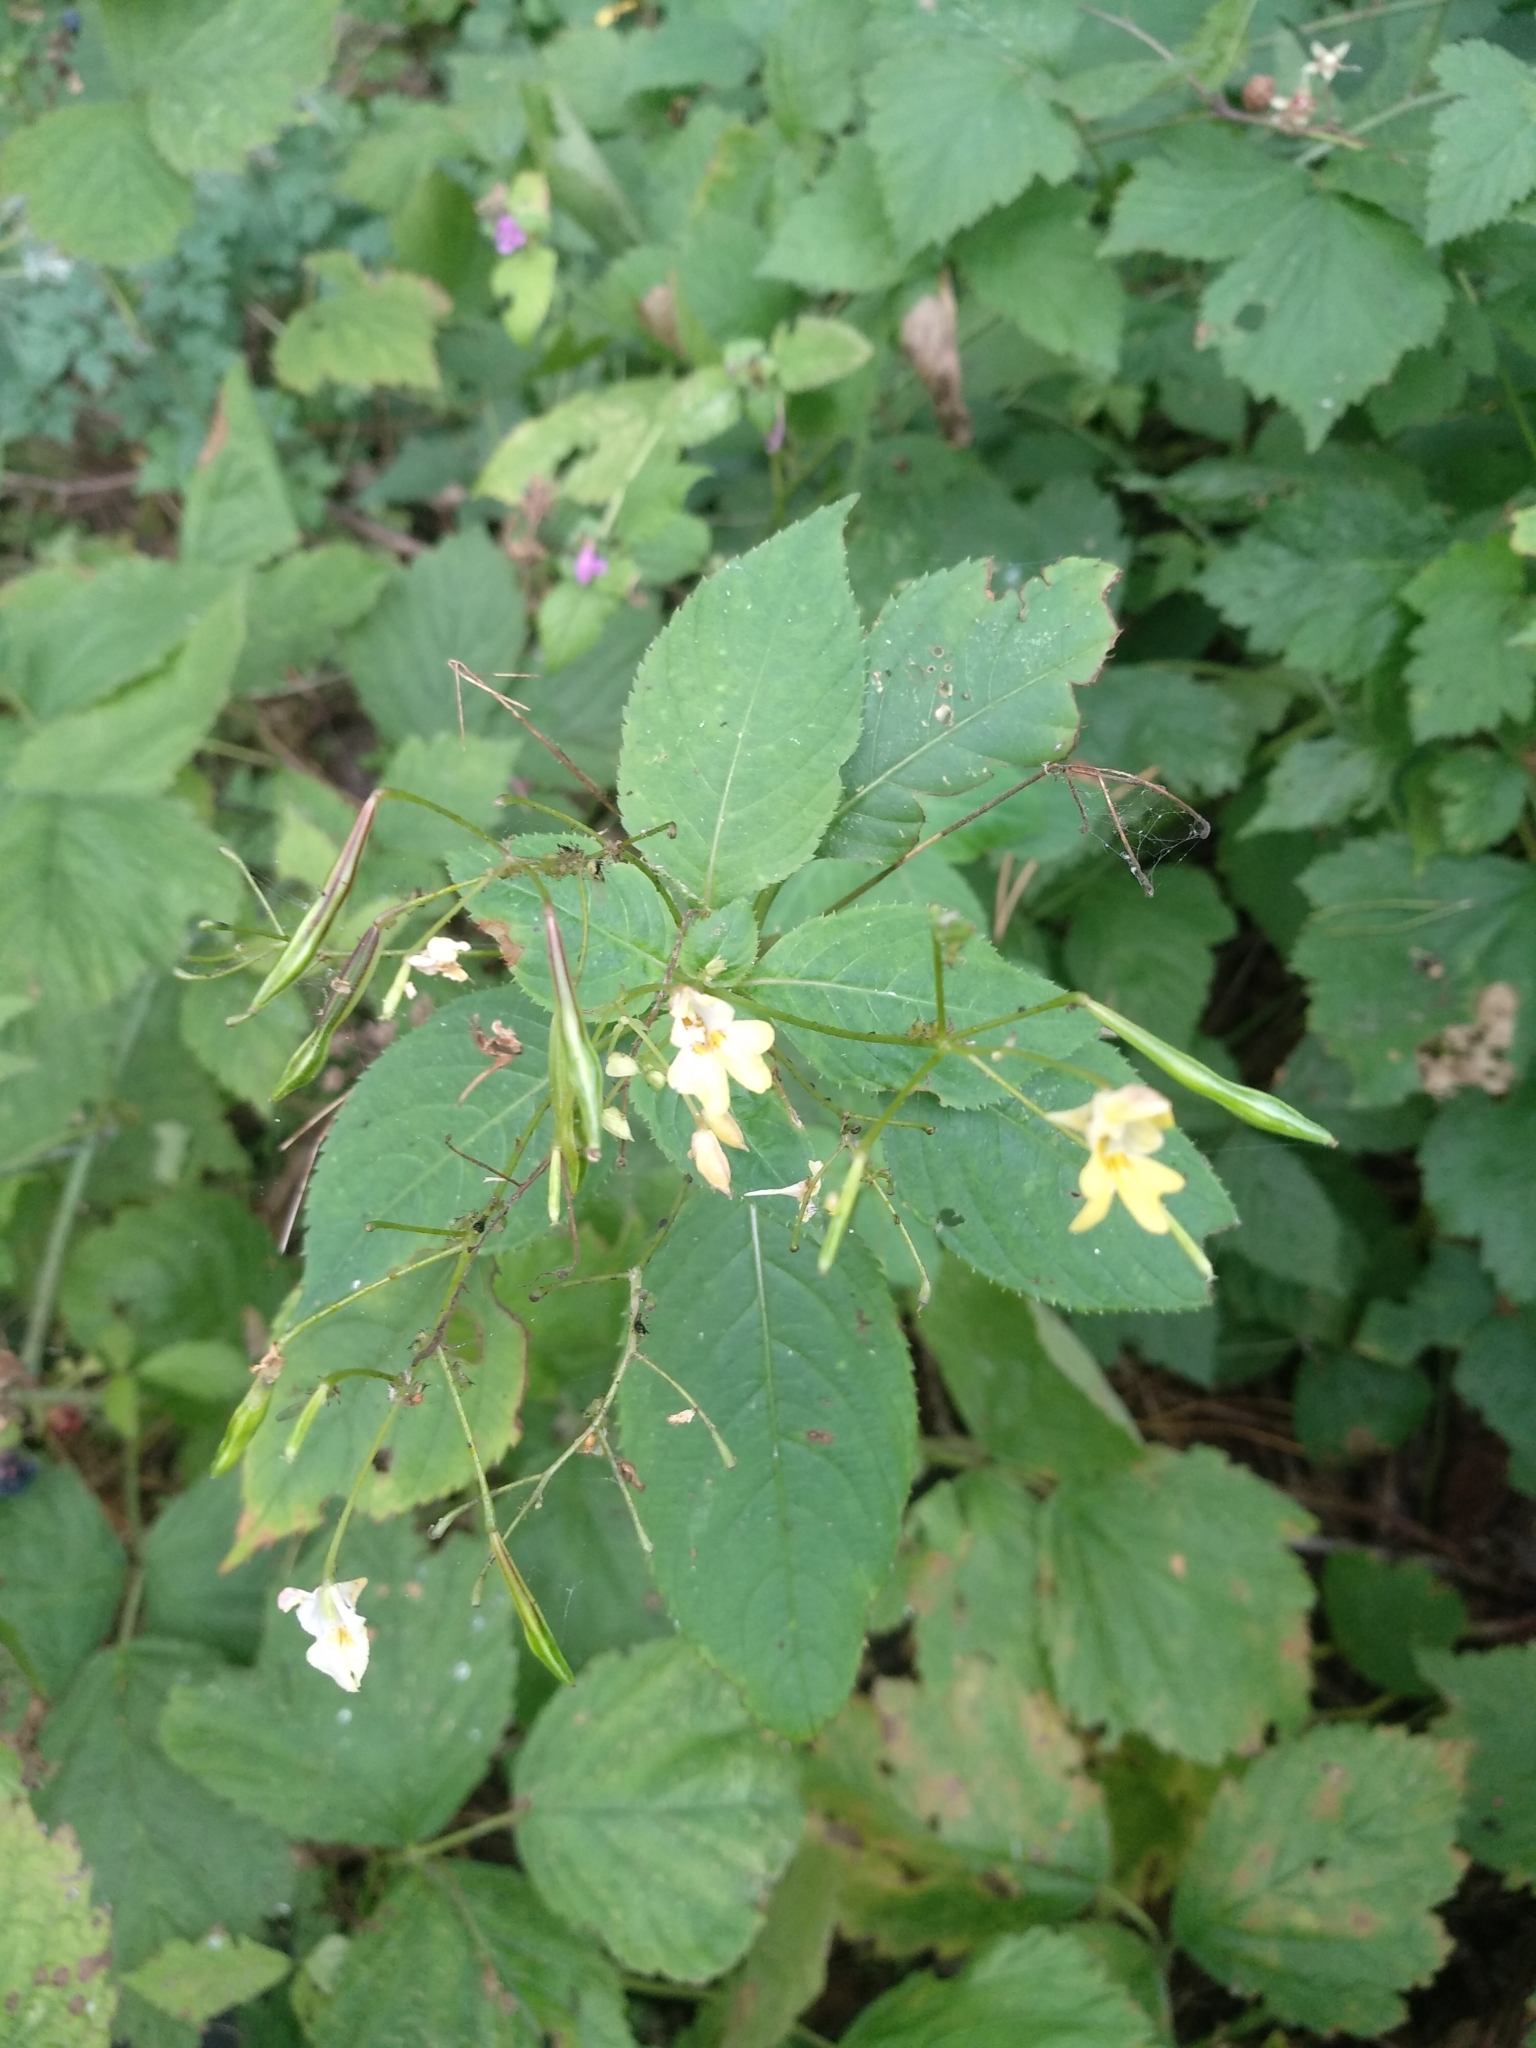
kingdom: Plantae
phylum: Tracheophyta
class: Magnoliopsida
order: Ericales
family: Balsaminaceae
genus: Impatiens
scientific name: Impatiens parviflora
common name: Small balsam
